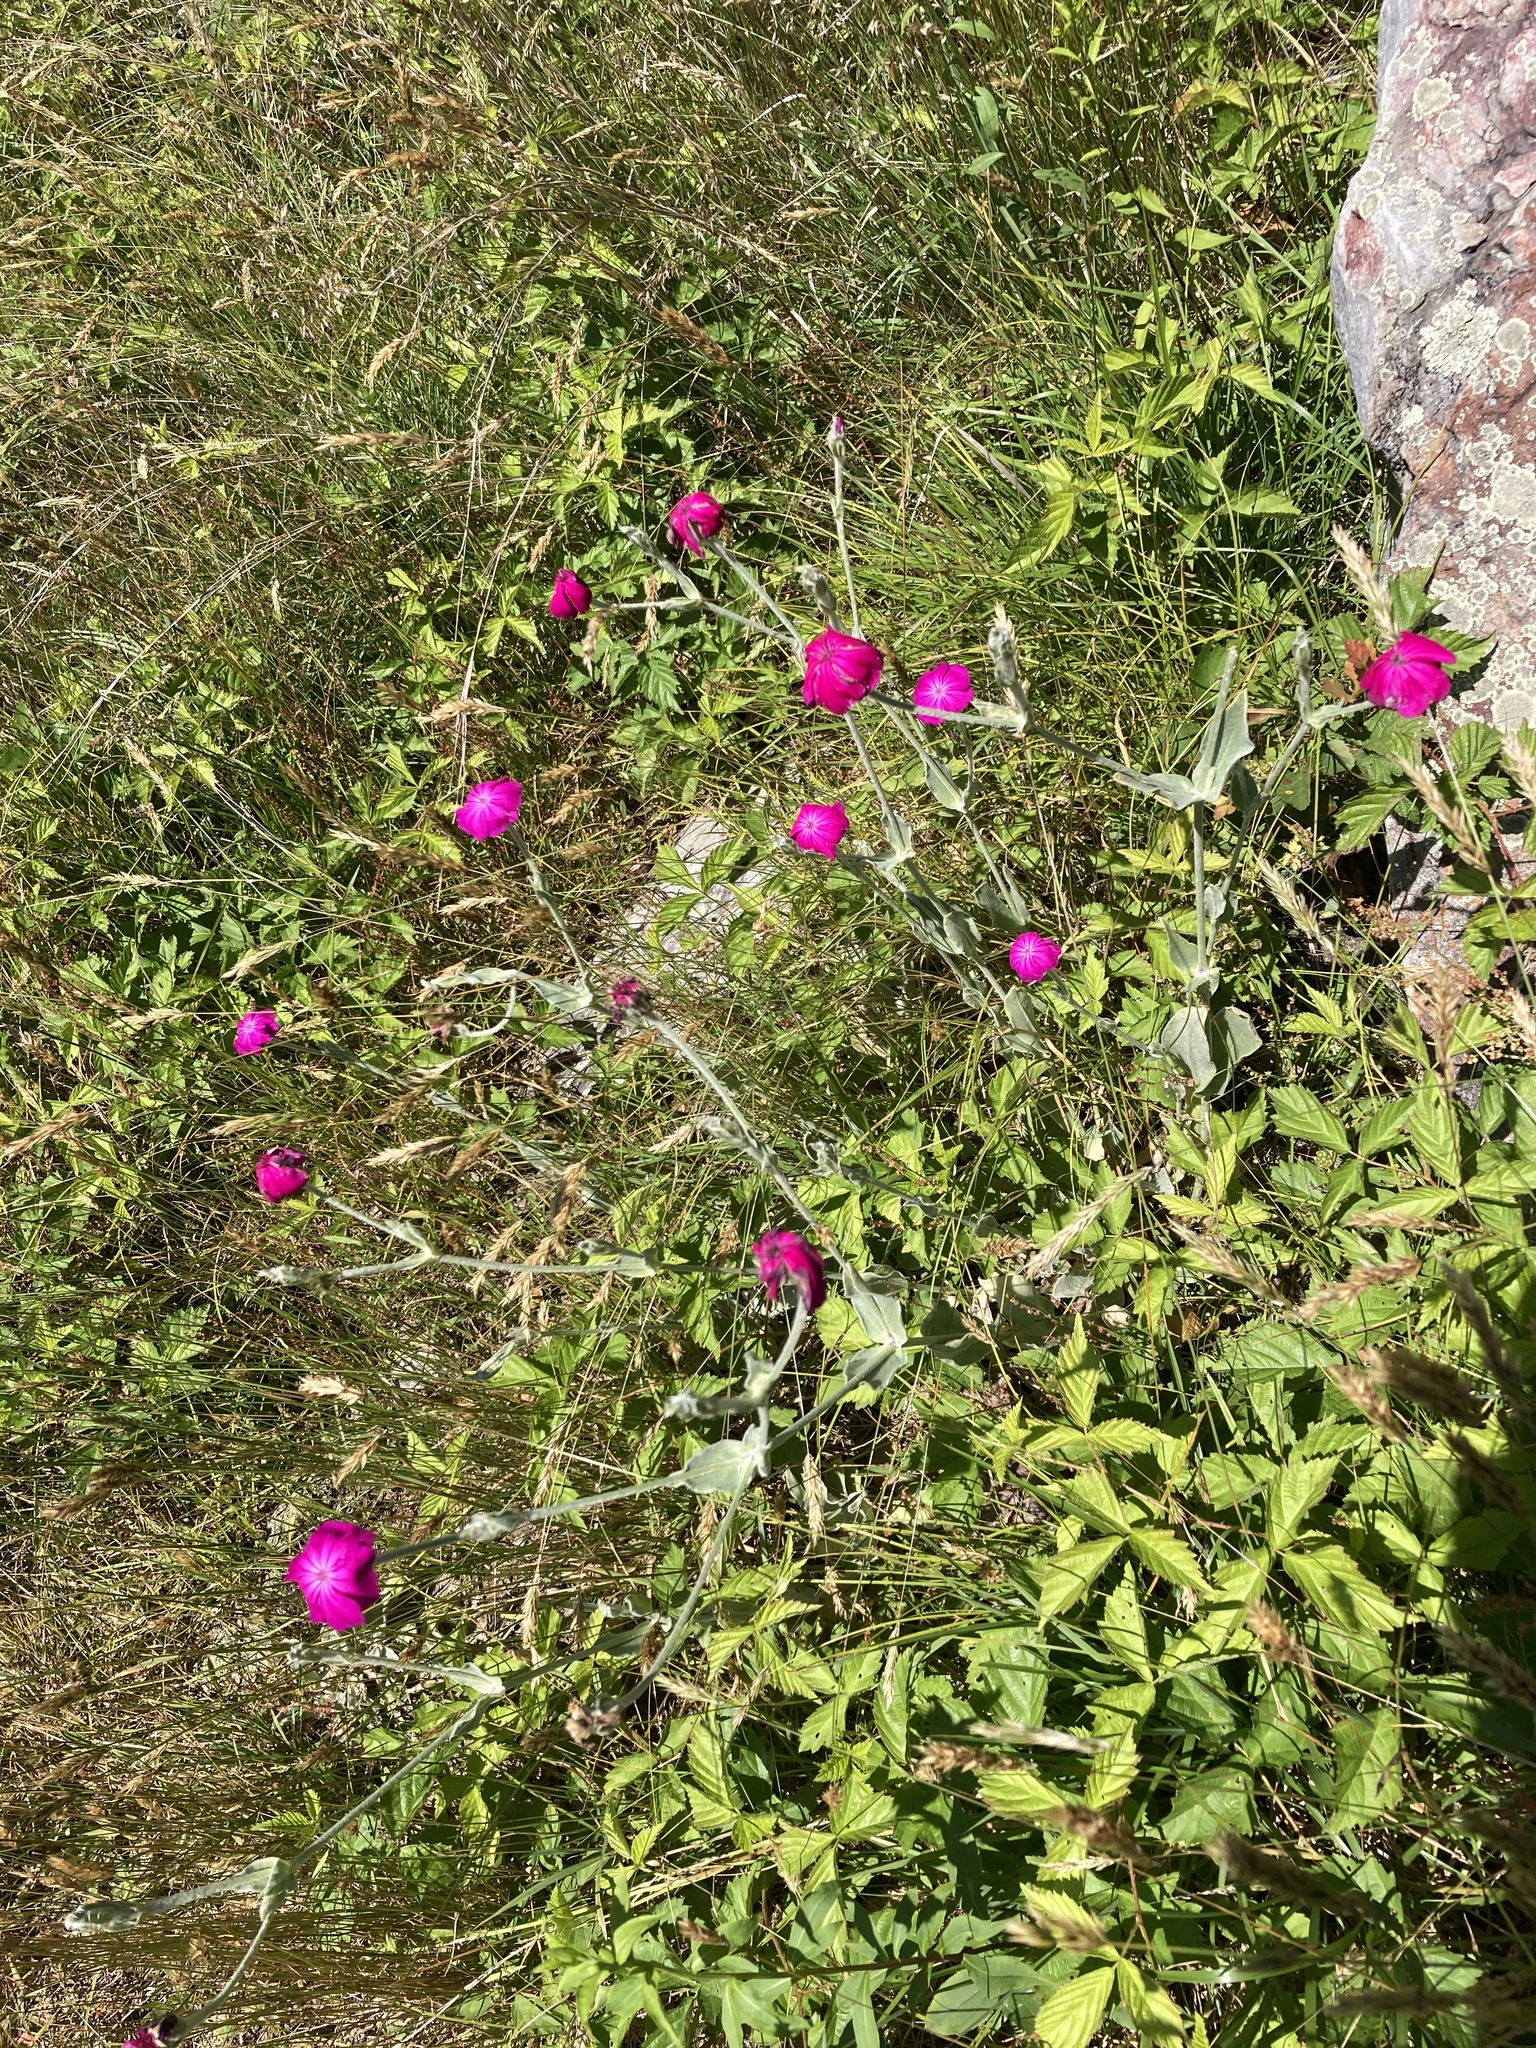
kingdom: Plantae
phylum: Tracheophyta
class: Magnoliopsida
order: Caryophyllales
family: Caryophyllaceae
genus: Silene
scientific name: Silene coronaria
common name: Rose campion
